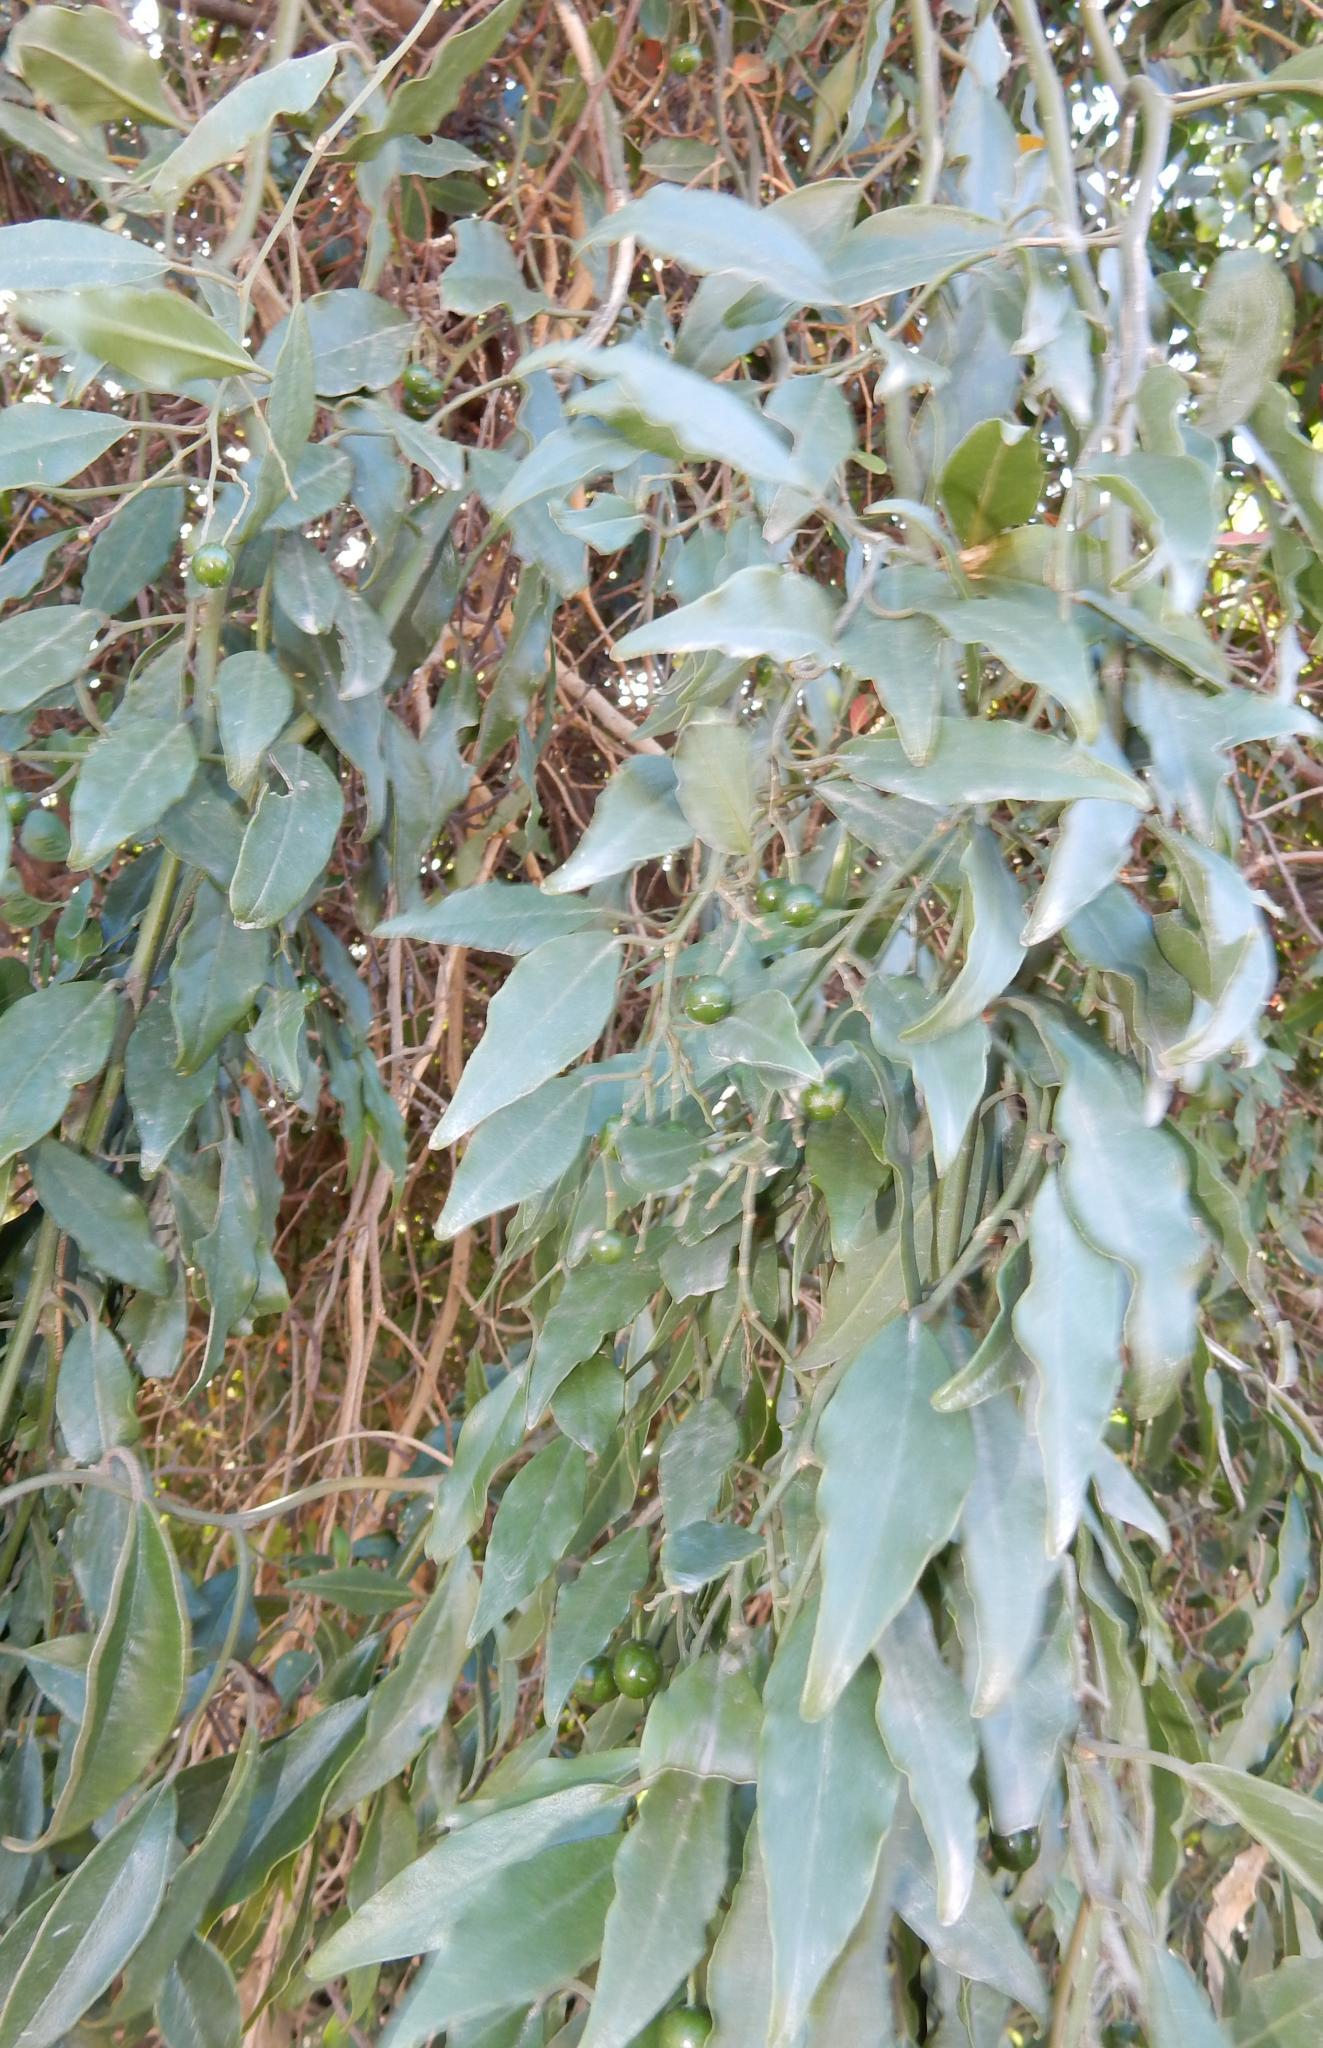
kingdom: Plantae
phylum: Tracheophyta
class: Magnoliopsida
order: Brassicales
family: Capparaceae
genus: Capparis
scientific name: Capparis sepiaria
